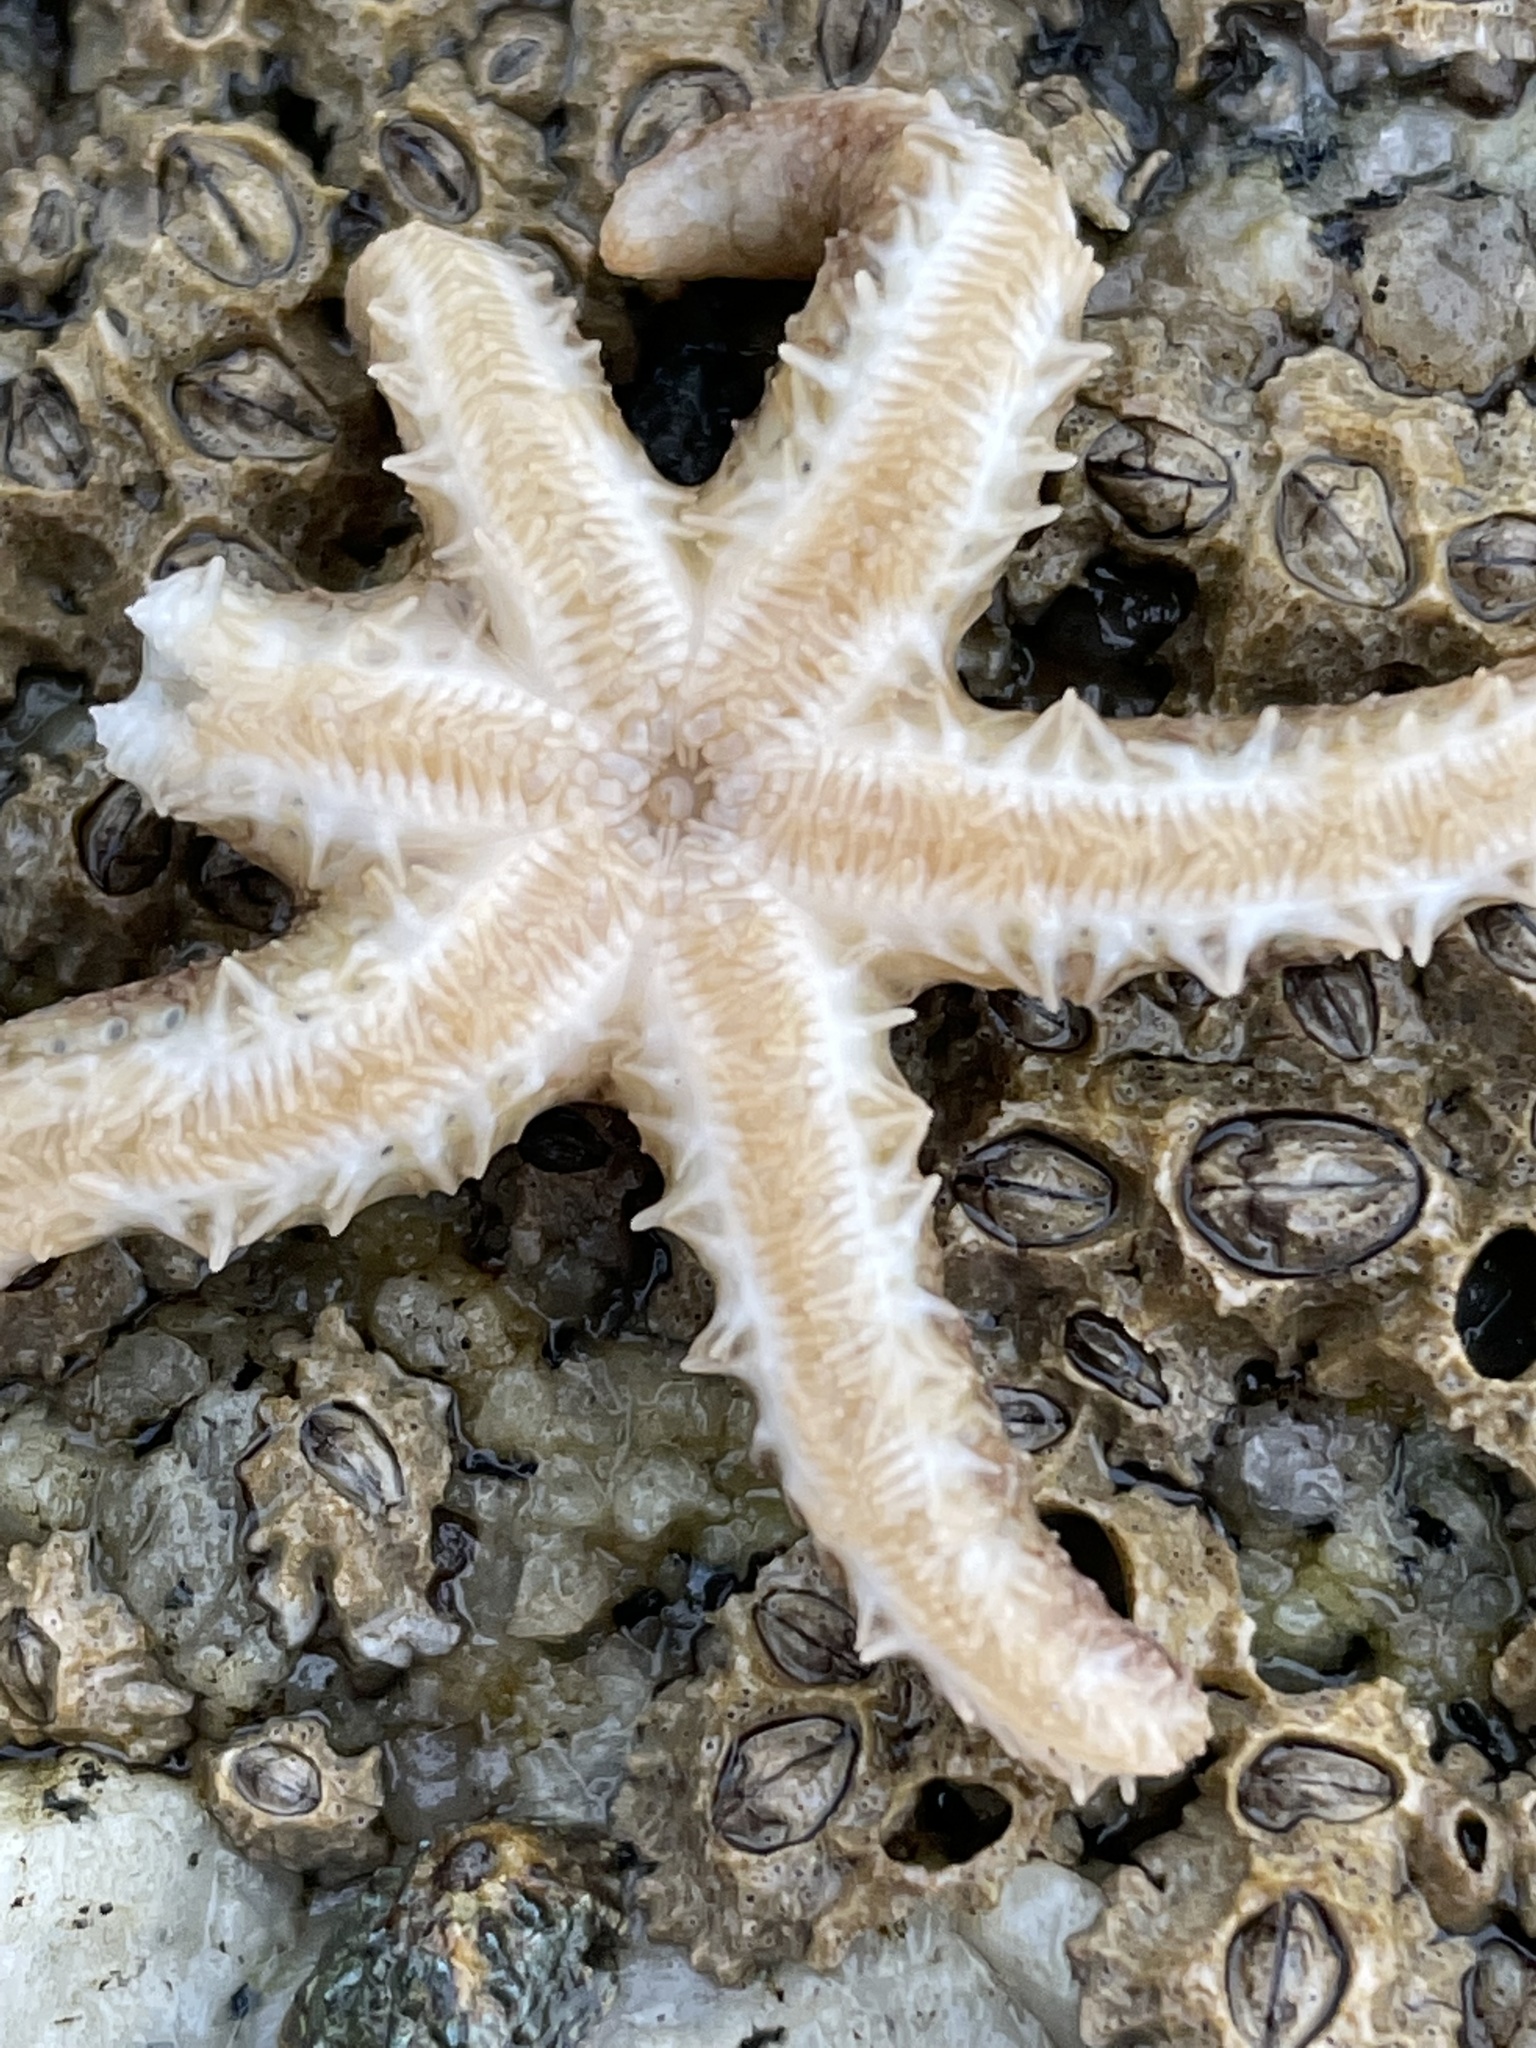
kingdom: Animalia
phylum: Echinodermata
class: Asteroidea
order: Forcipulatida
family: Asteriidae
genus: Leptasterias
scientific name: Leptasterias hexactis
